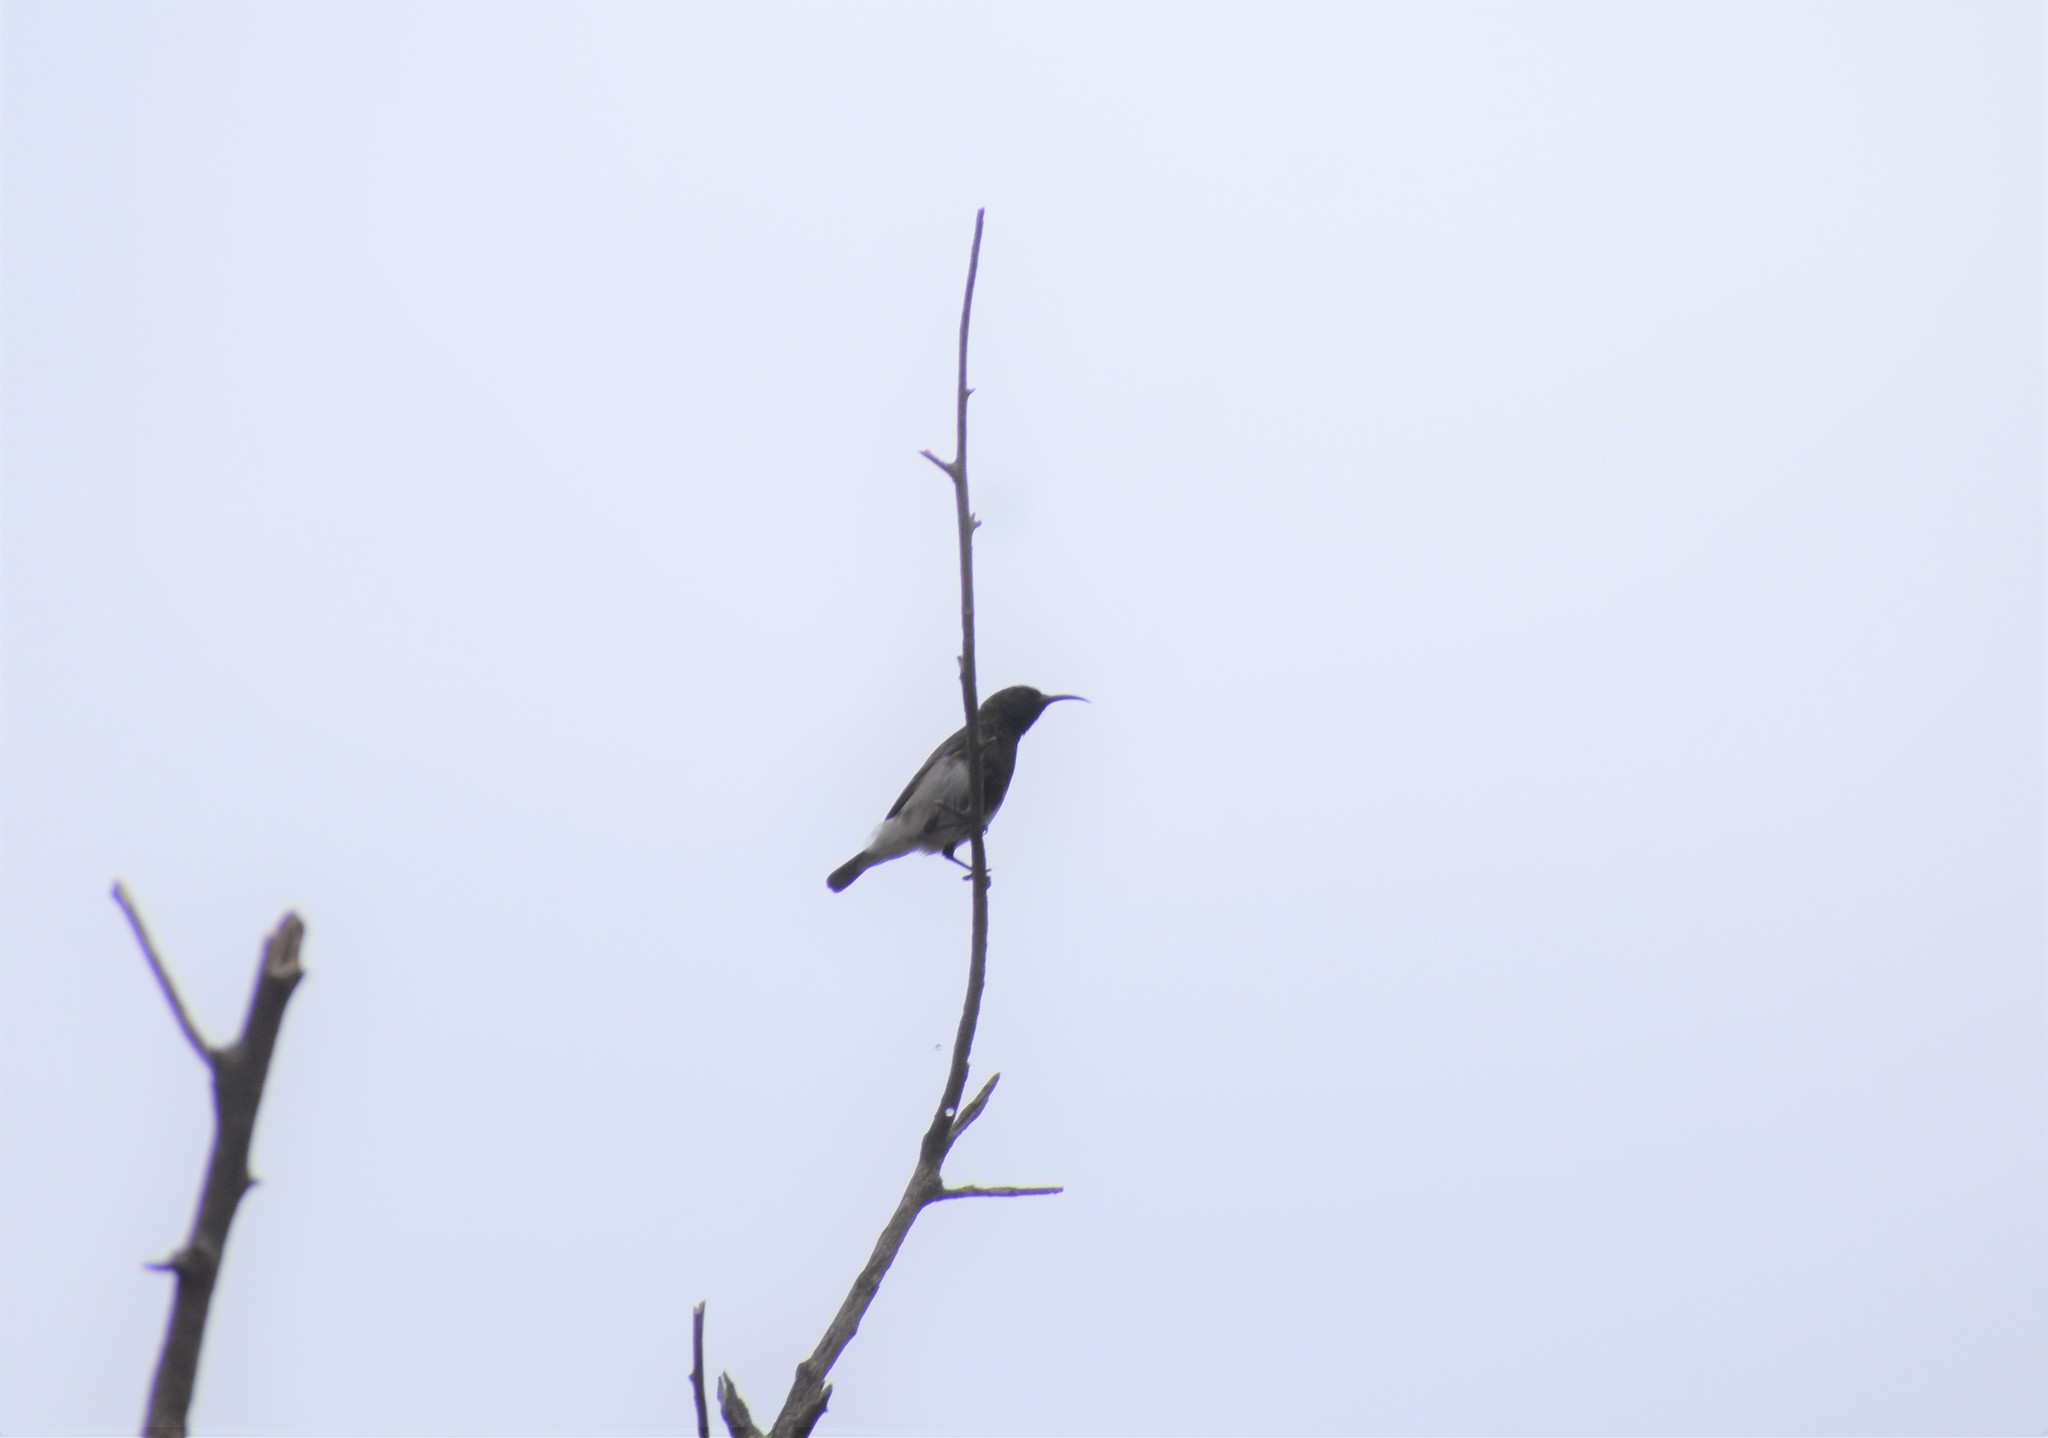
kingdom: Animalia
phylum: Chordata
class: Aves
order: Passeriformes
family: Nectariniidae
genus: Cinnyris
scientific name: Cinnyris fuscus
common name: Dusky sunbird
